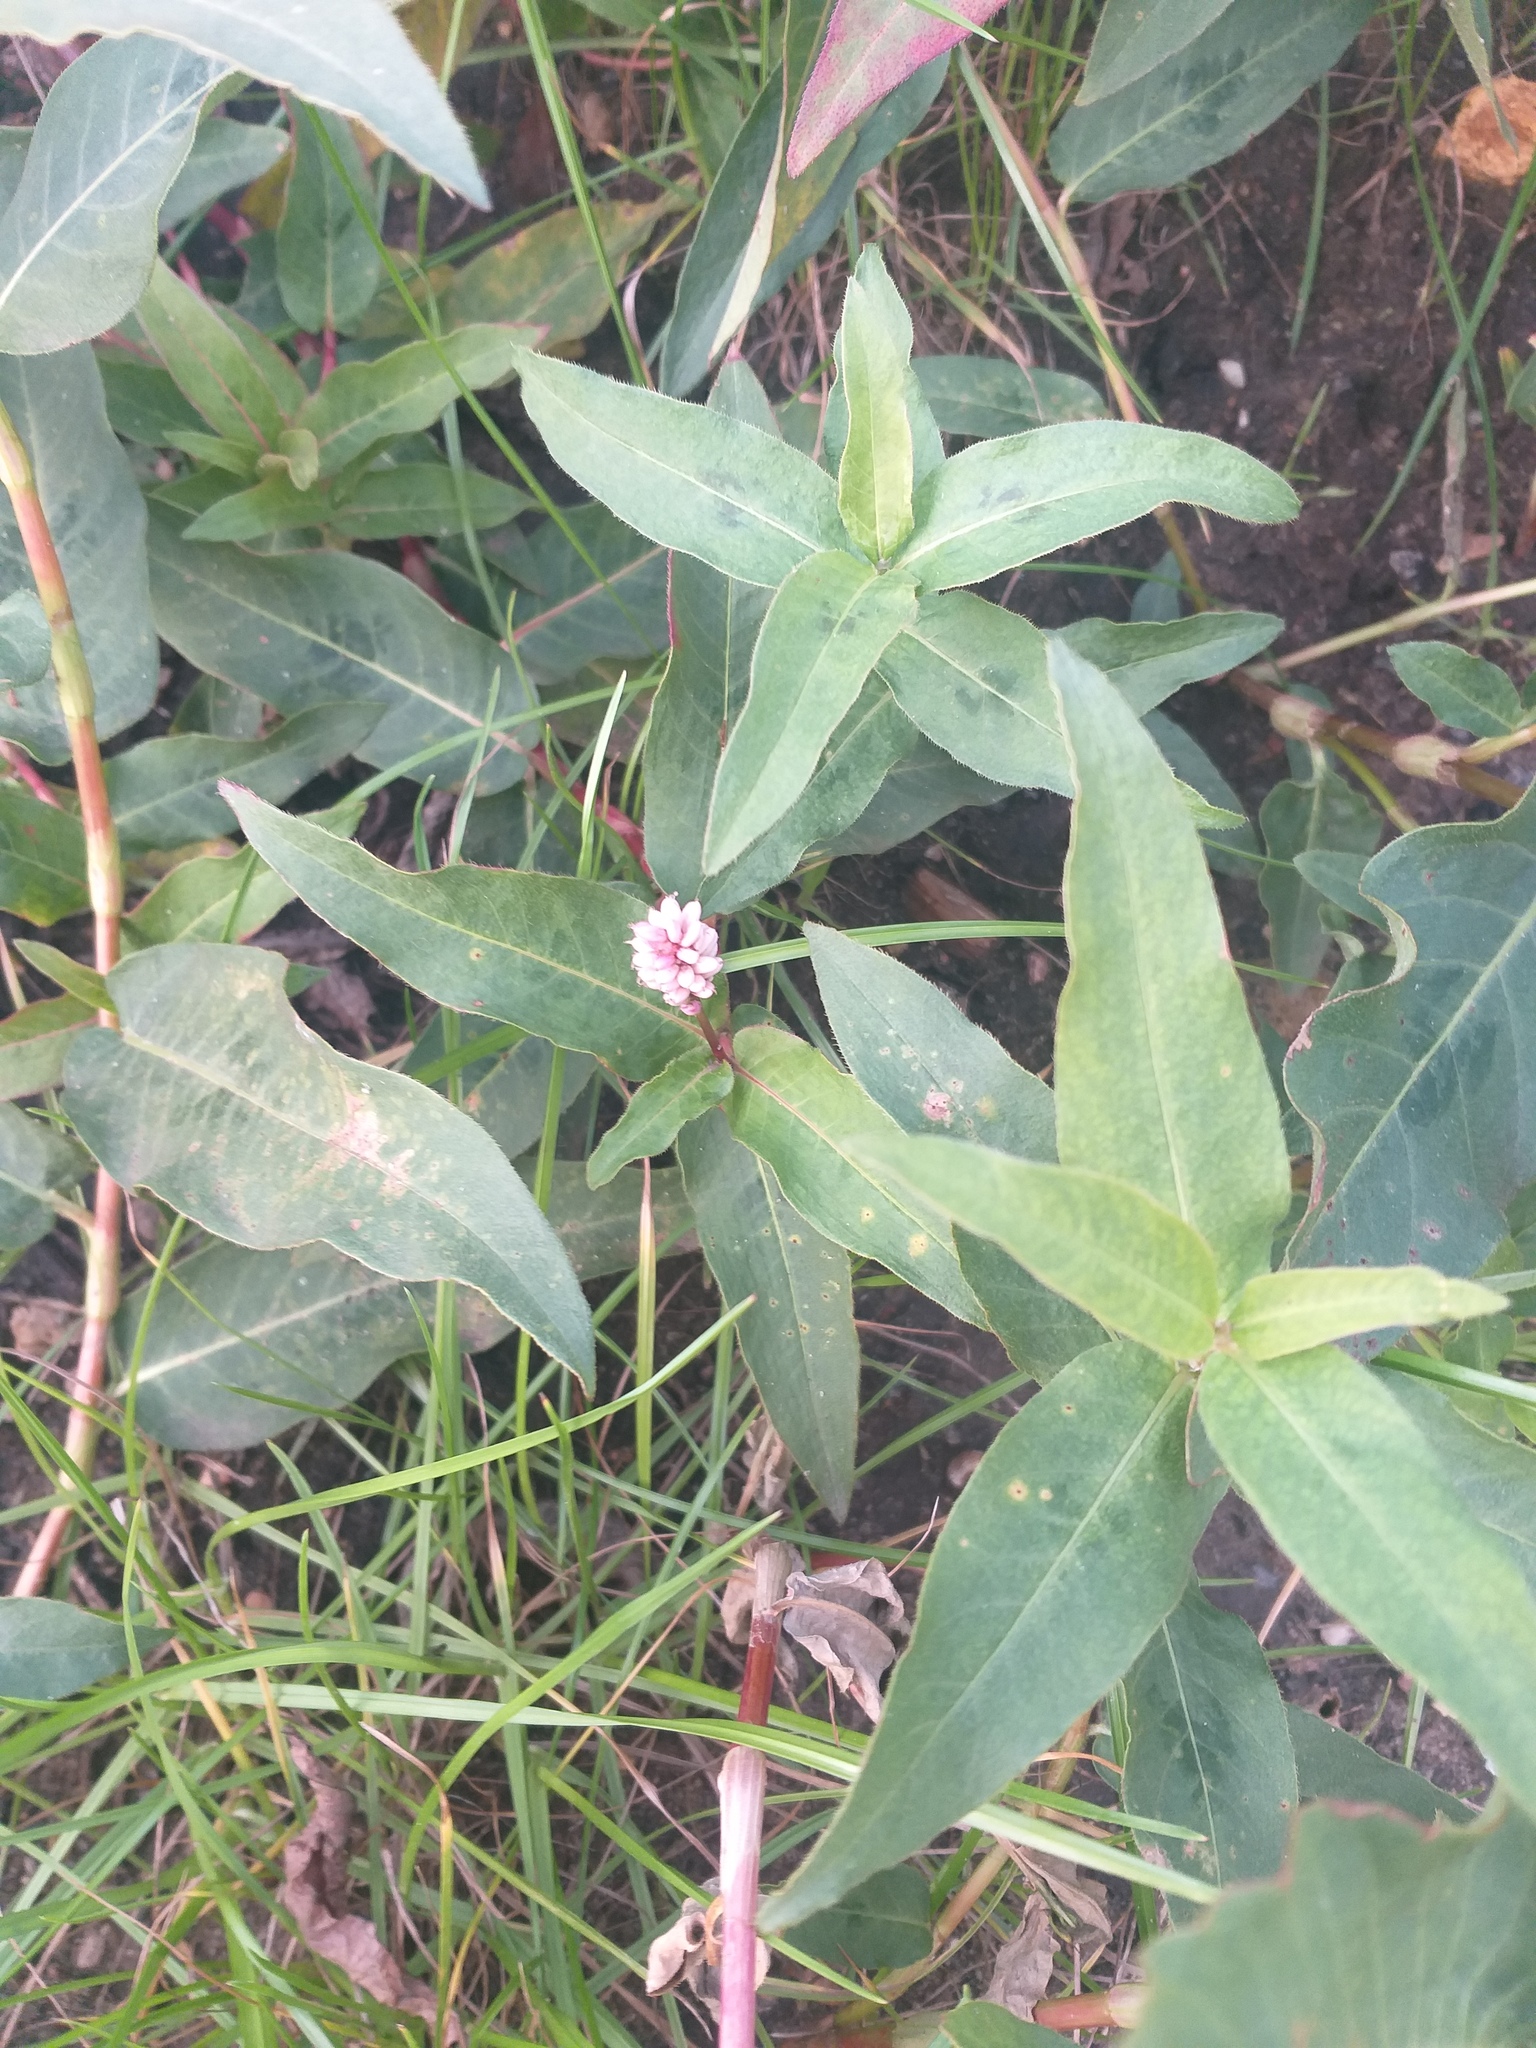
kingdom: Plantae
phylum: Tracheophyta
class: Magnoliopsida
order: Caryophyllales
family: Polygonaceae
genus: Persicaria
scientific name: Persicaria amphibia
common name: Amphibious bistort
